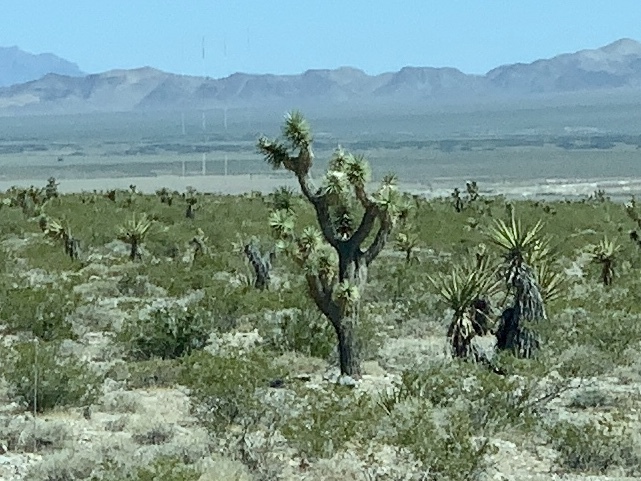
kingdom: Plantae
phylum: Tracheophyta
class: Liliopsida
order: Asparagales
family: Asparagaceae
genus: Yucca
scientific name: Yucca brevifolia
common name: Joshua tree
